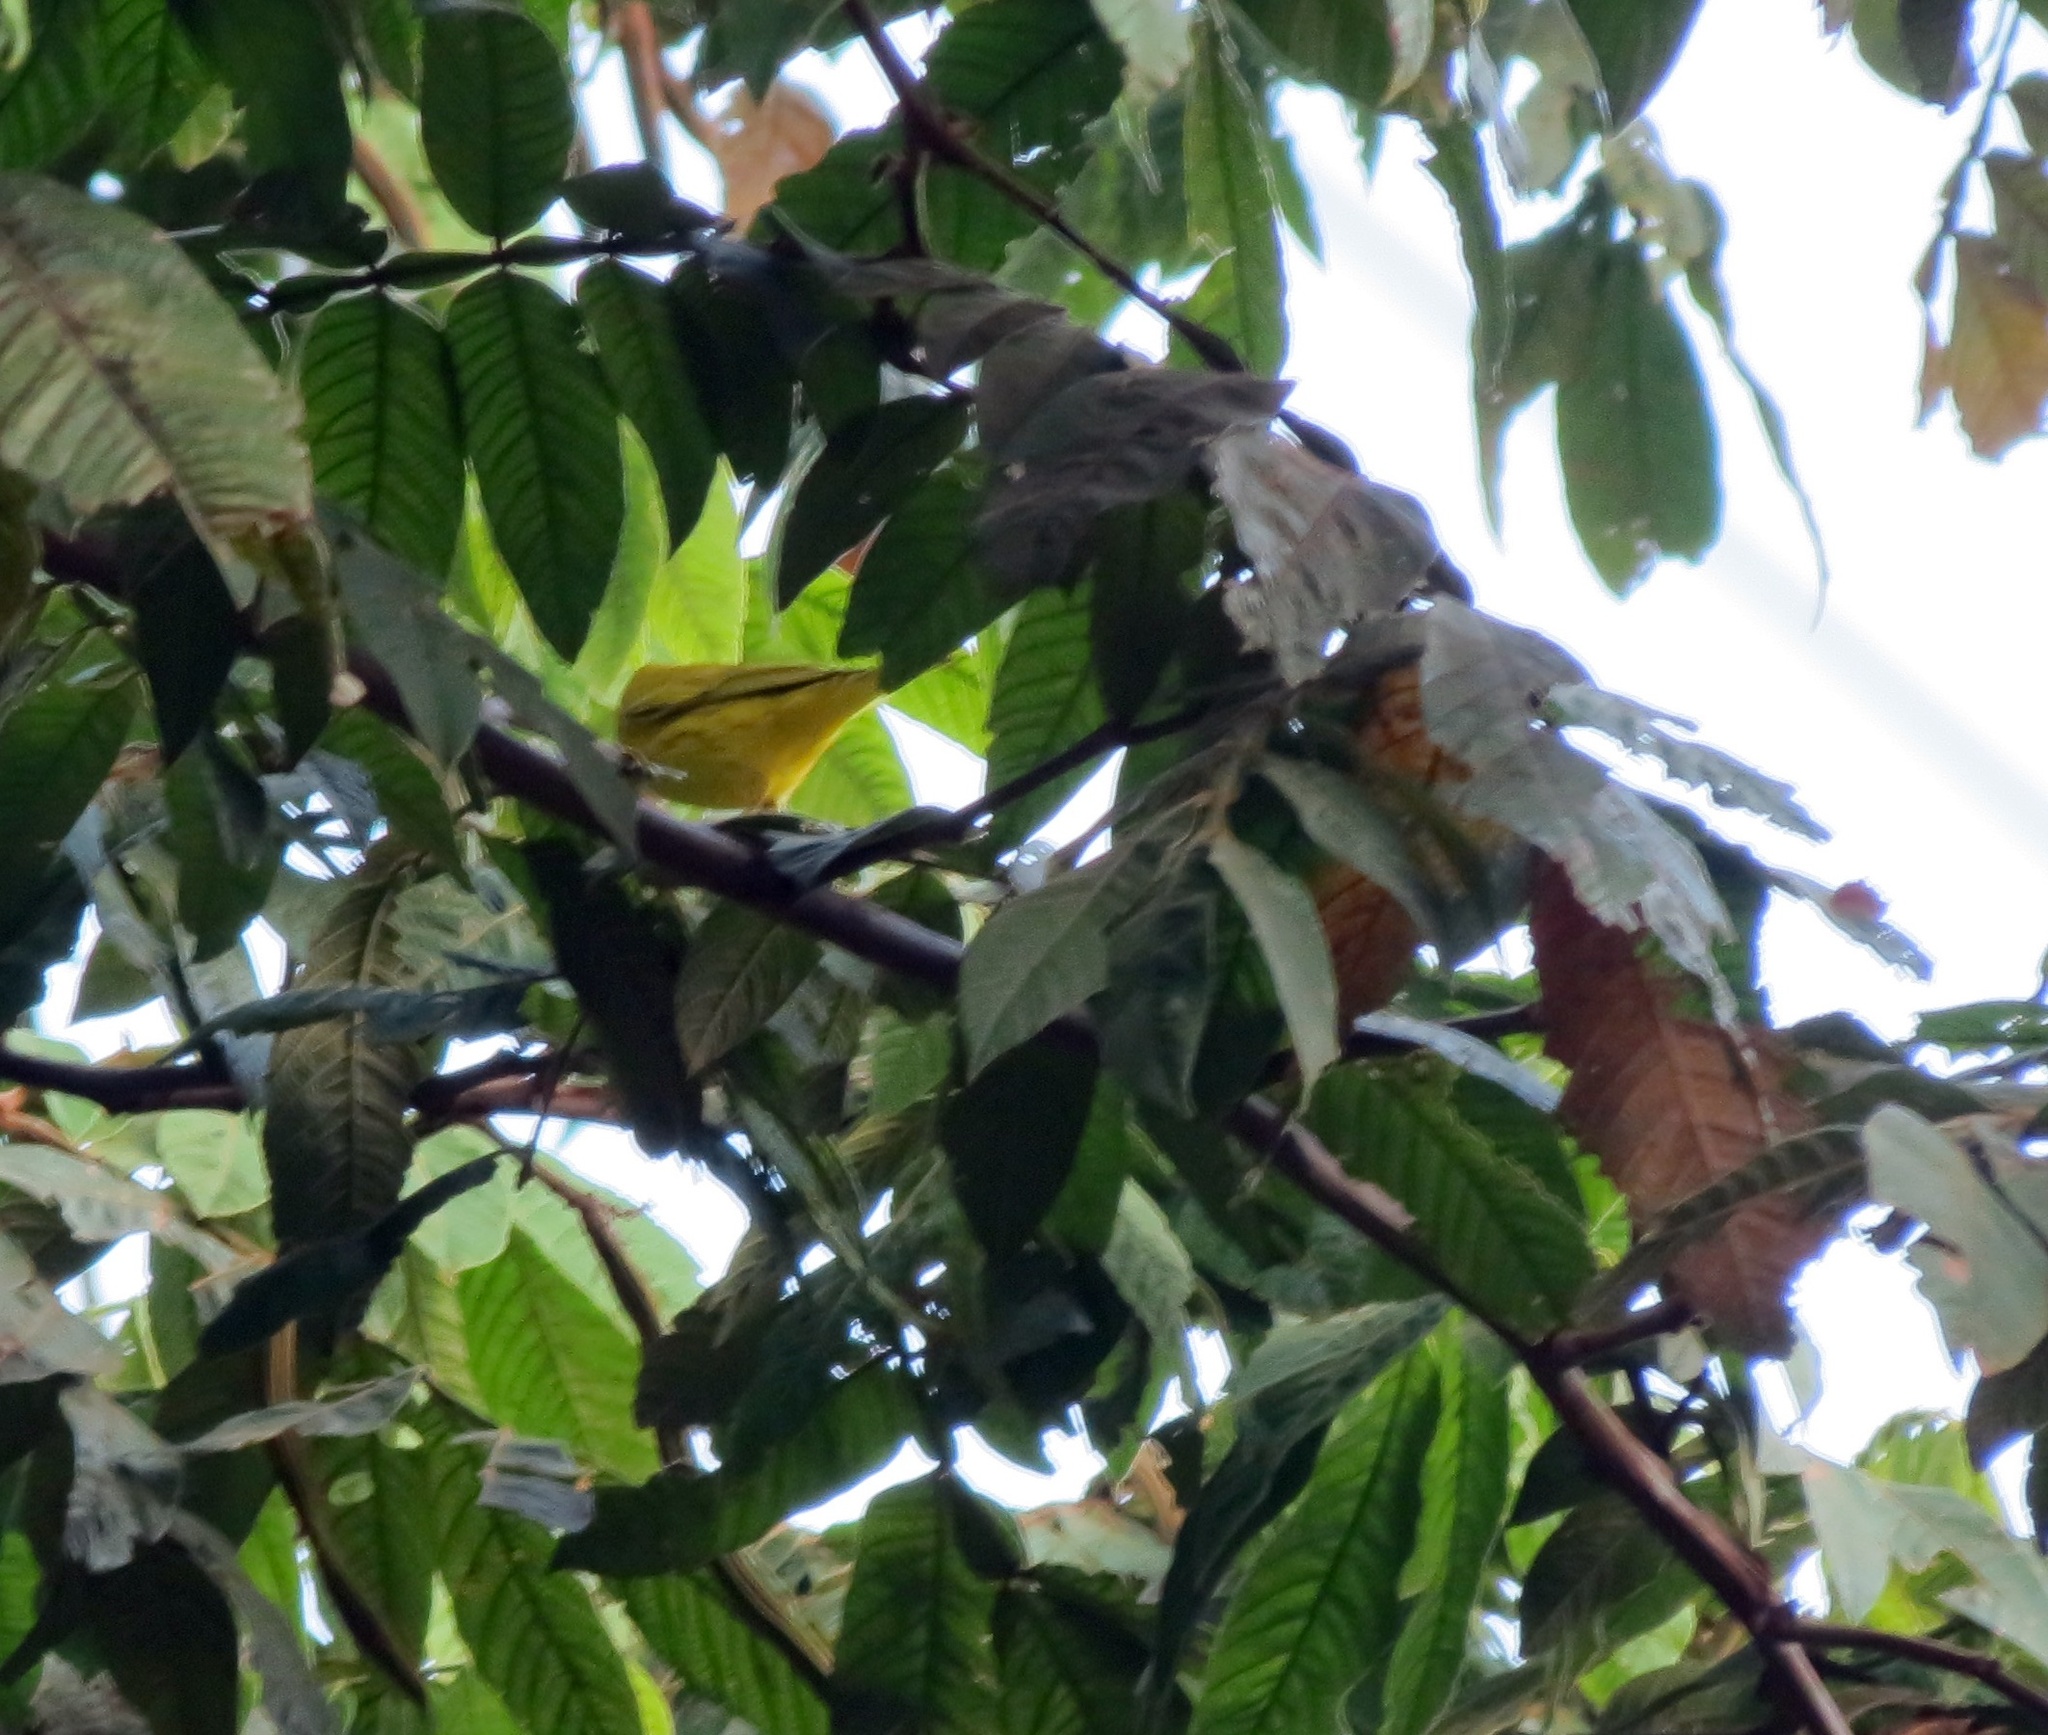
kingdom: Animalia
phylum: Chordata
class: Aves
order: Passeriformes
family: Parulidae
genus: Setophaga
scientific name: Setophaga petechia
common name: Yellow warbler
